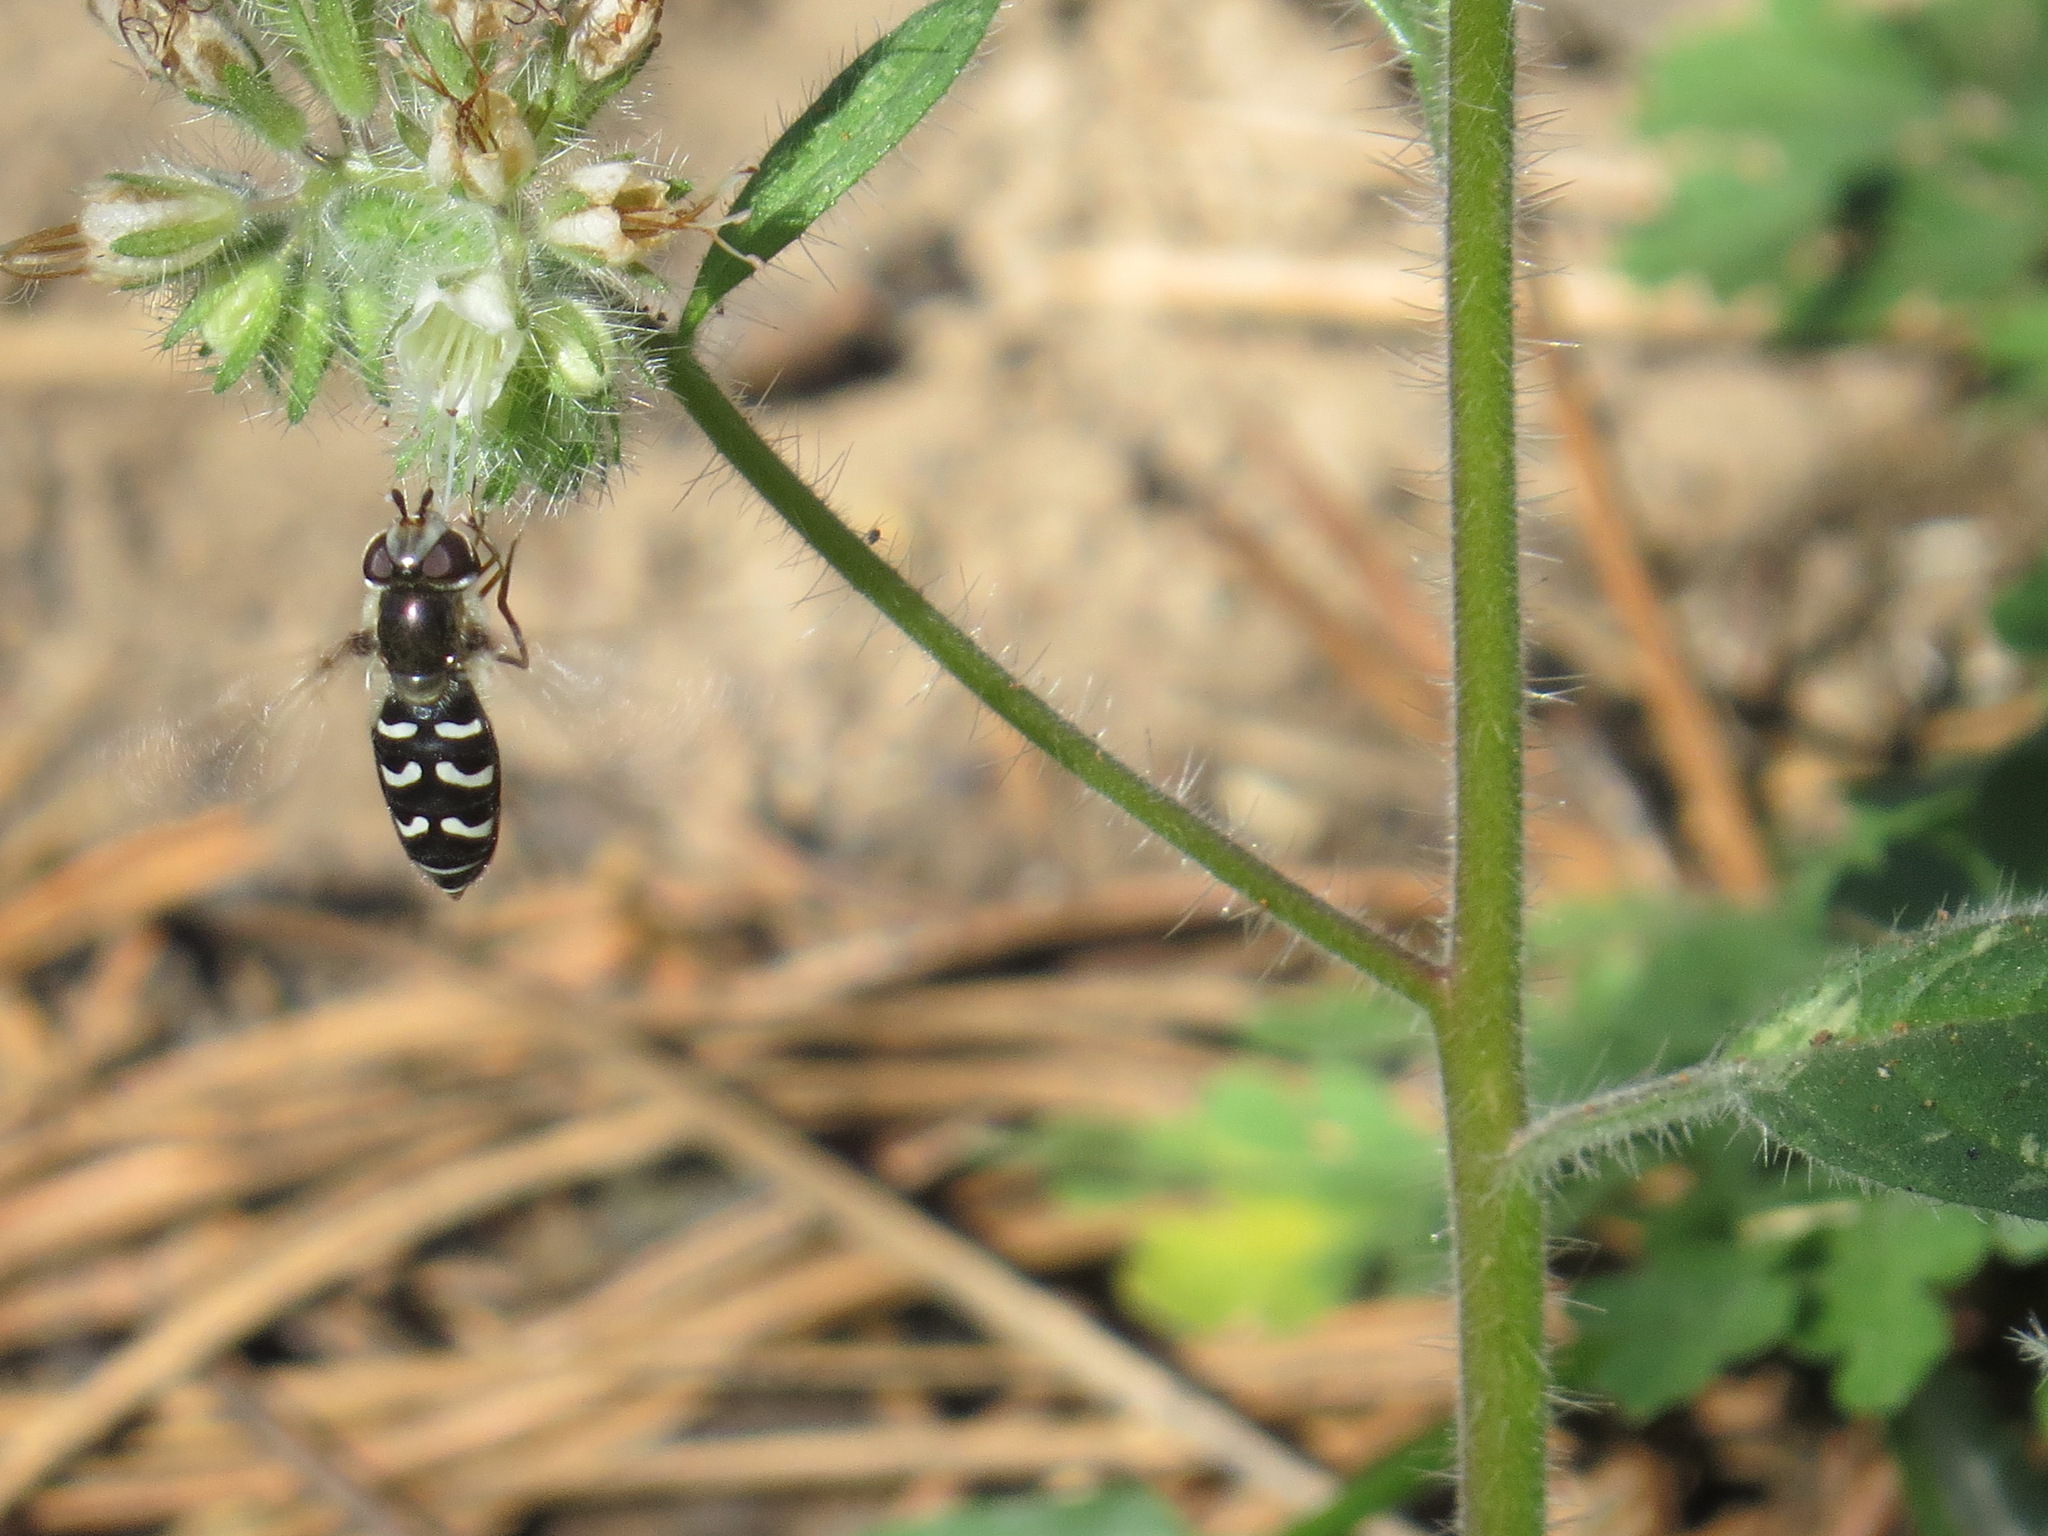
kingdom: Animalia
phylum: Arthropoda
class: Insecta
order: Diptera
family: Syrphidae
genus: Scaeva
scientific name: Scaeva affinis
